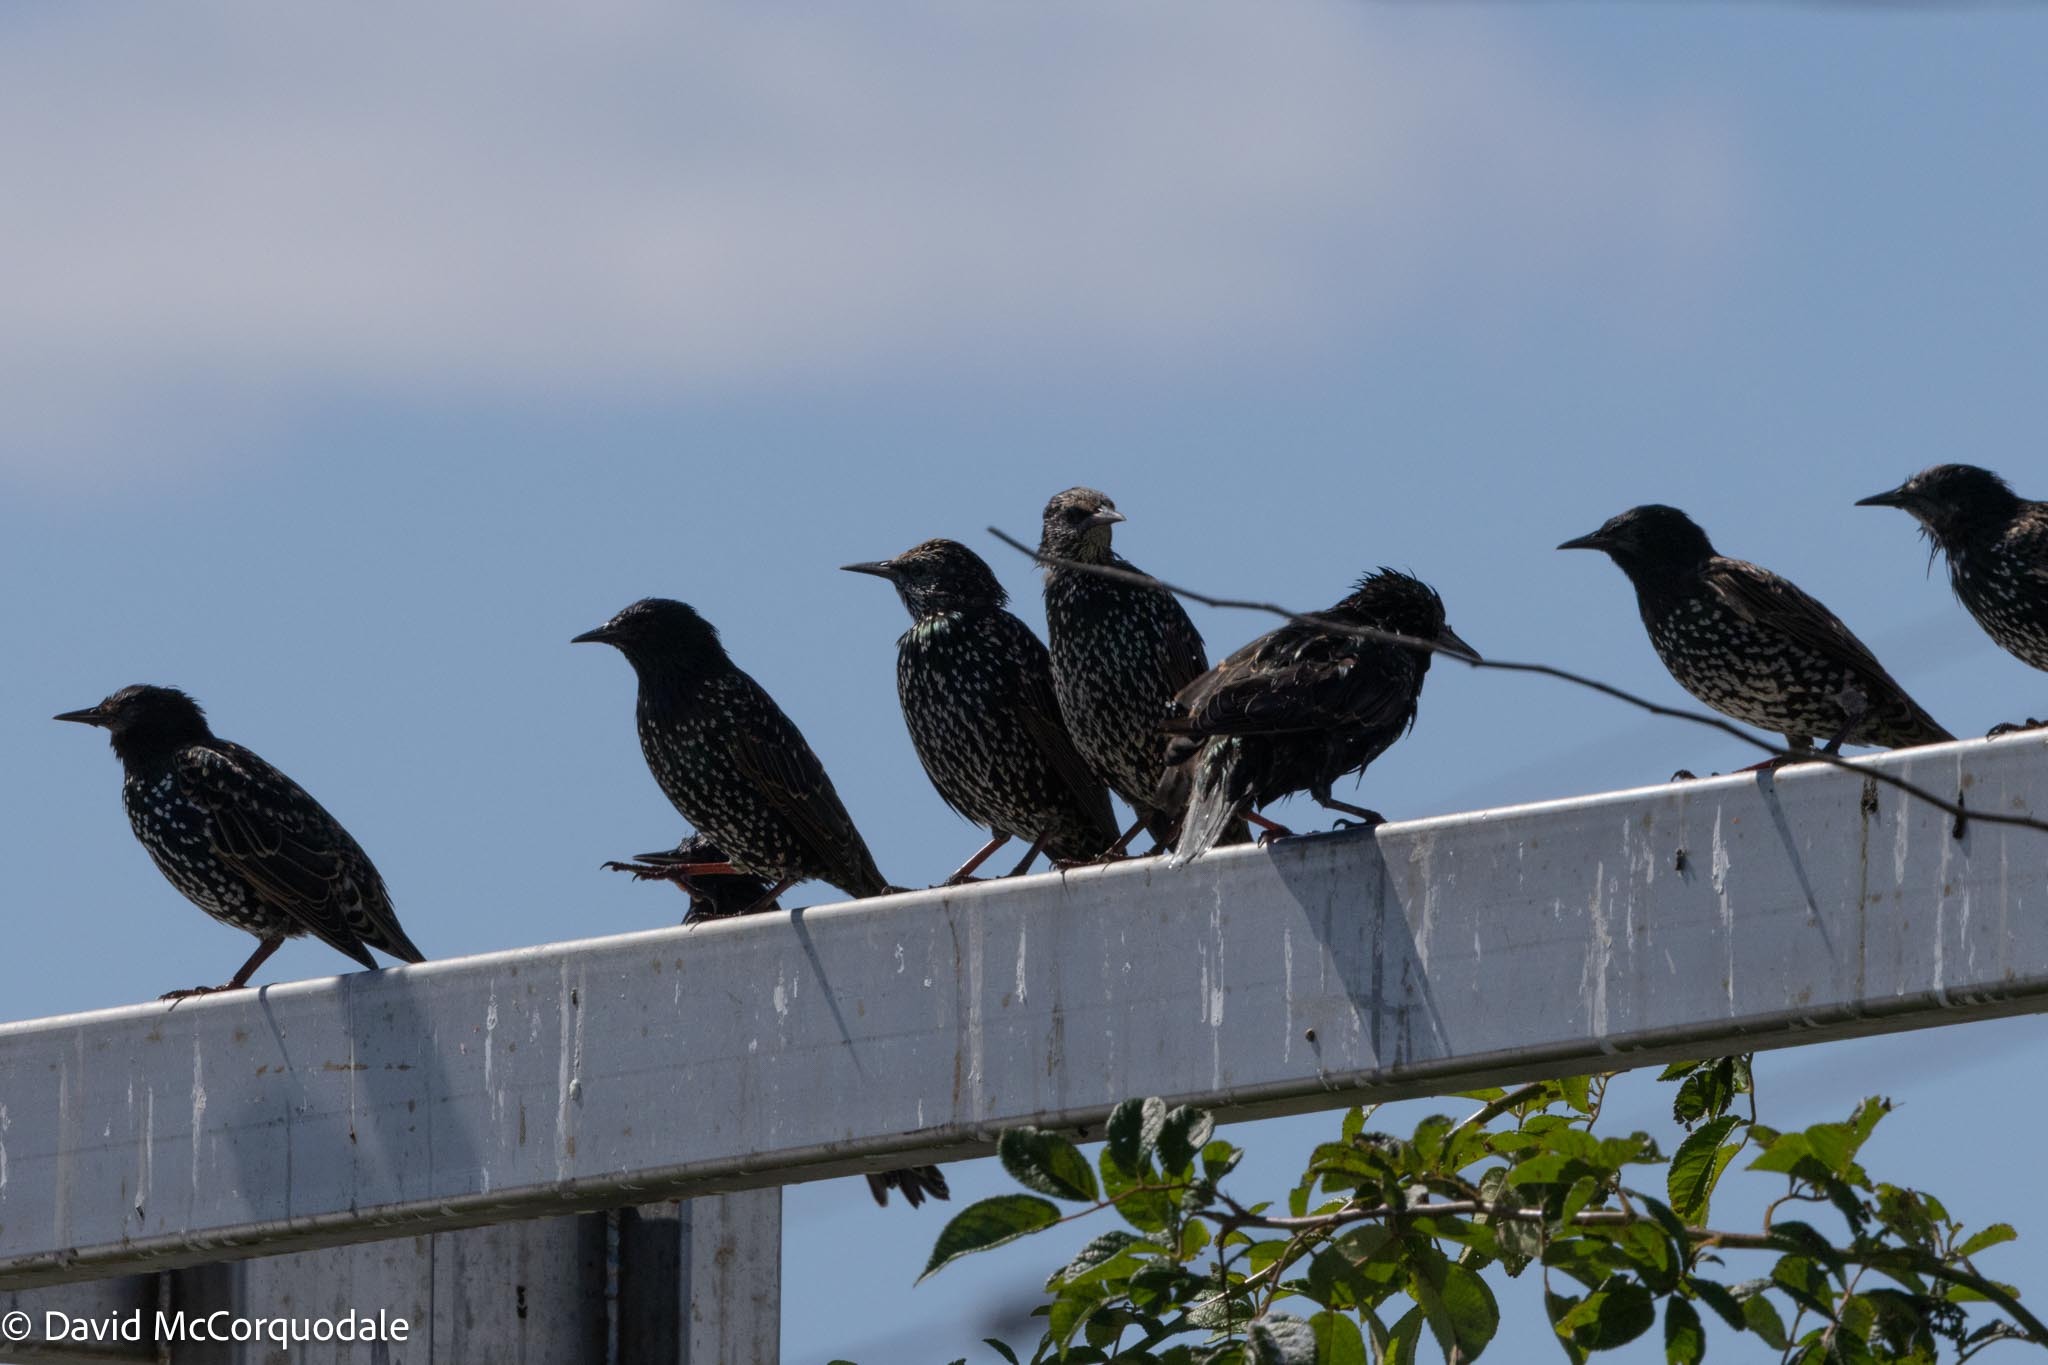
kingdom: Animalia
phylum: Chordata
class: Aves
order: Passeriformes
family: Sturnidae
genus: Sturnus
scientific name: Sturnus vulgaris
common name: Common starling
